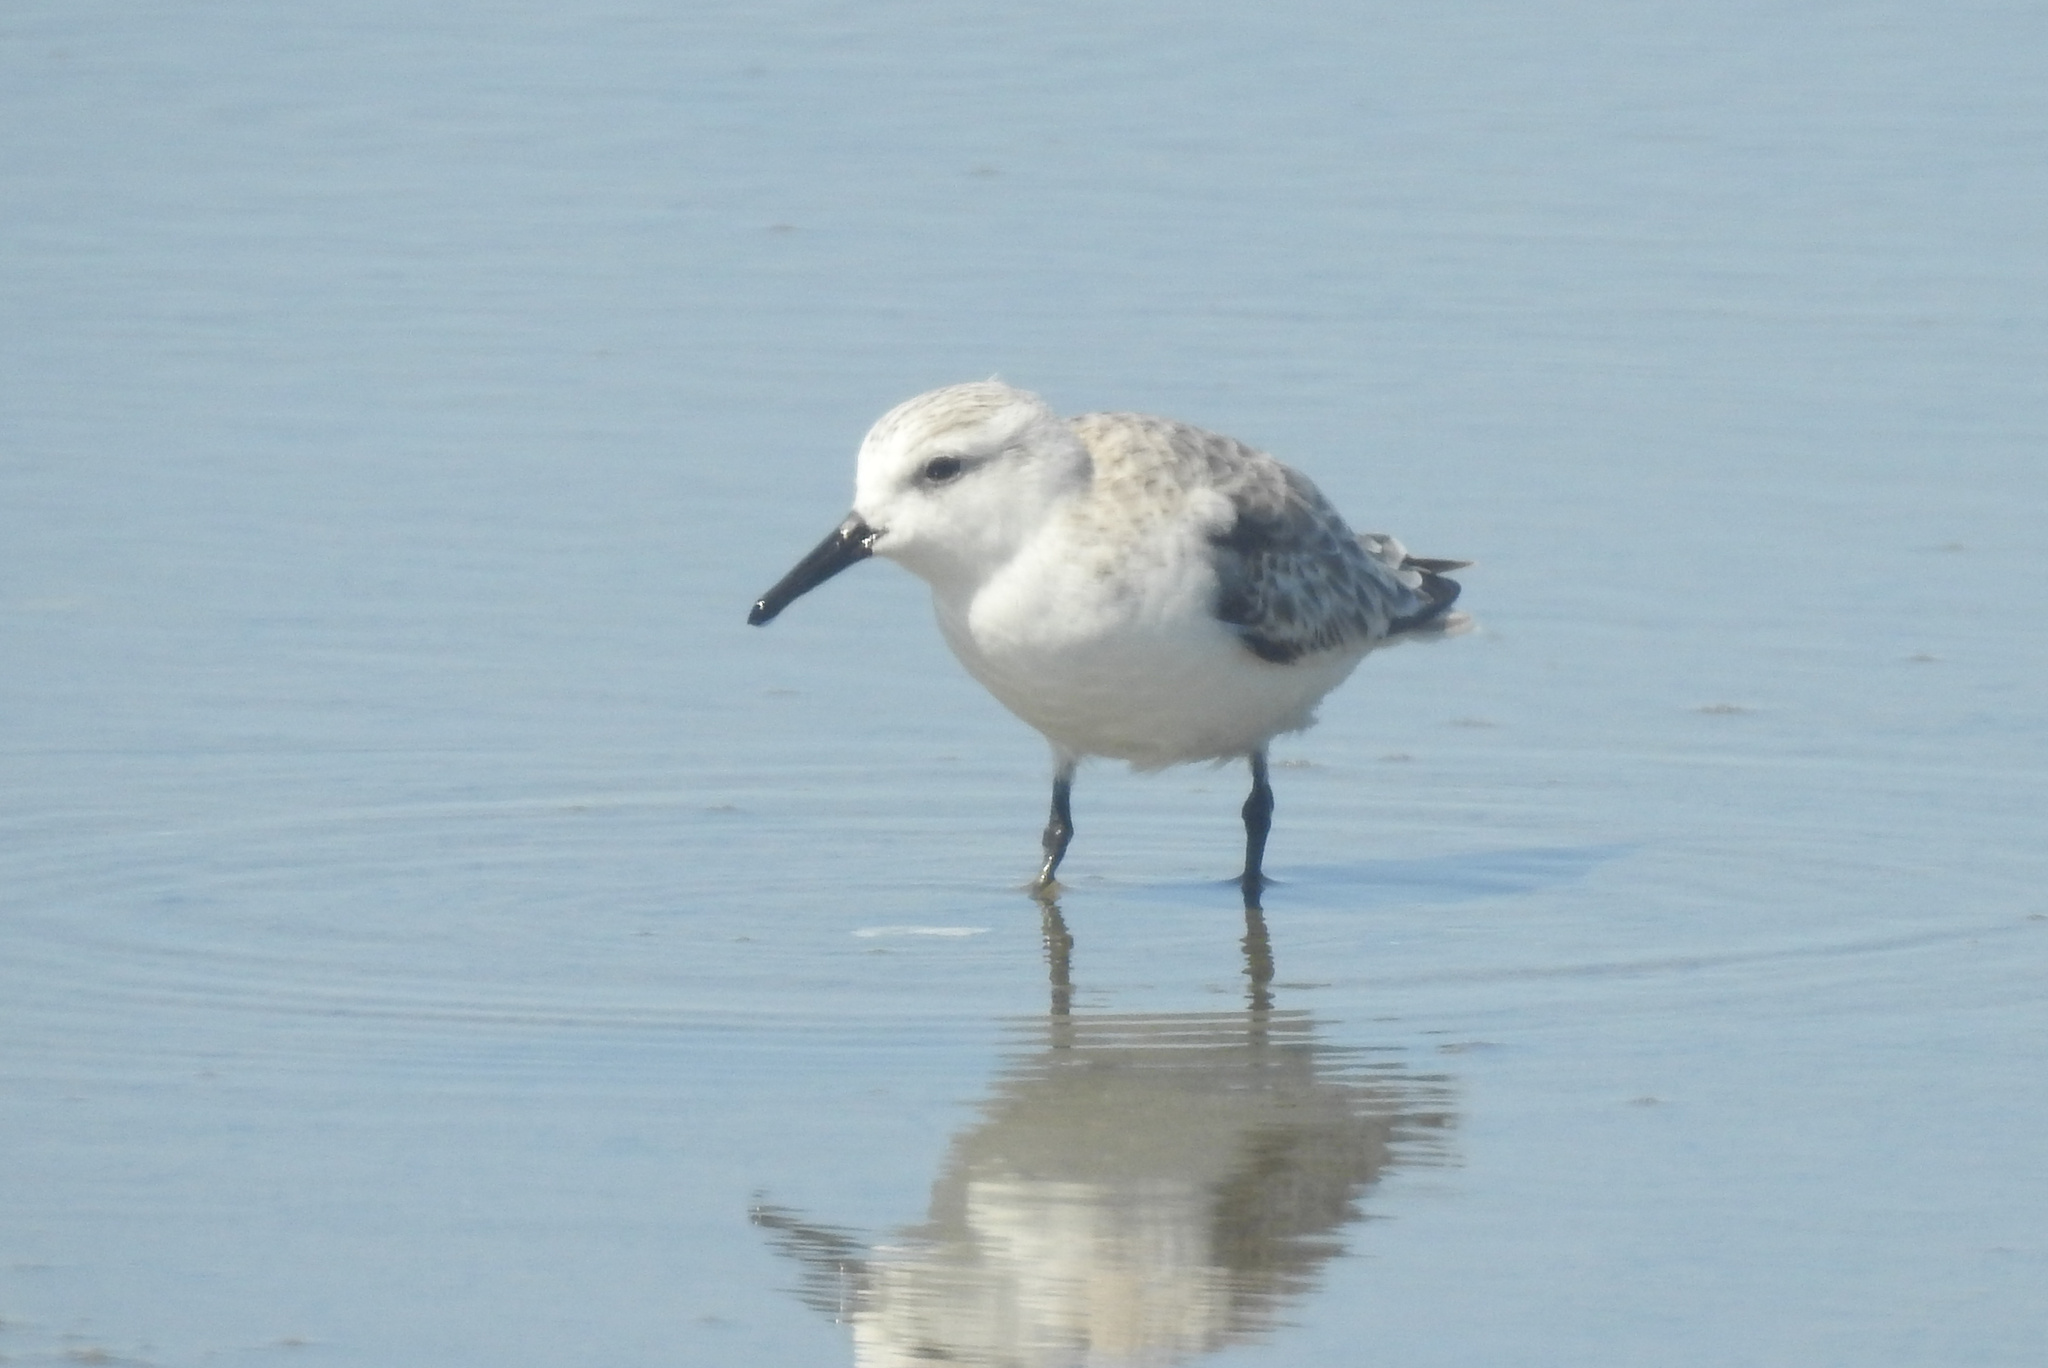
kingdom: Animalia
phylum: Chordata
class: Aves
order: Charadriiformes
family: Scolopacidae
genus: Calidris
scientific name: Calidris alba
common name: Sanderling
